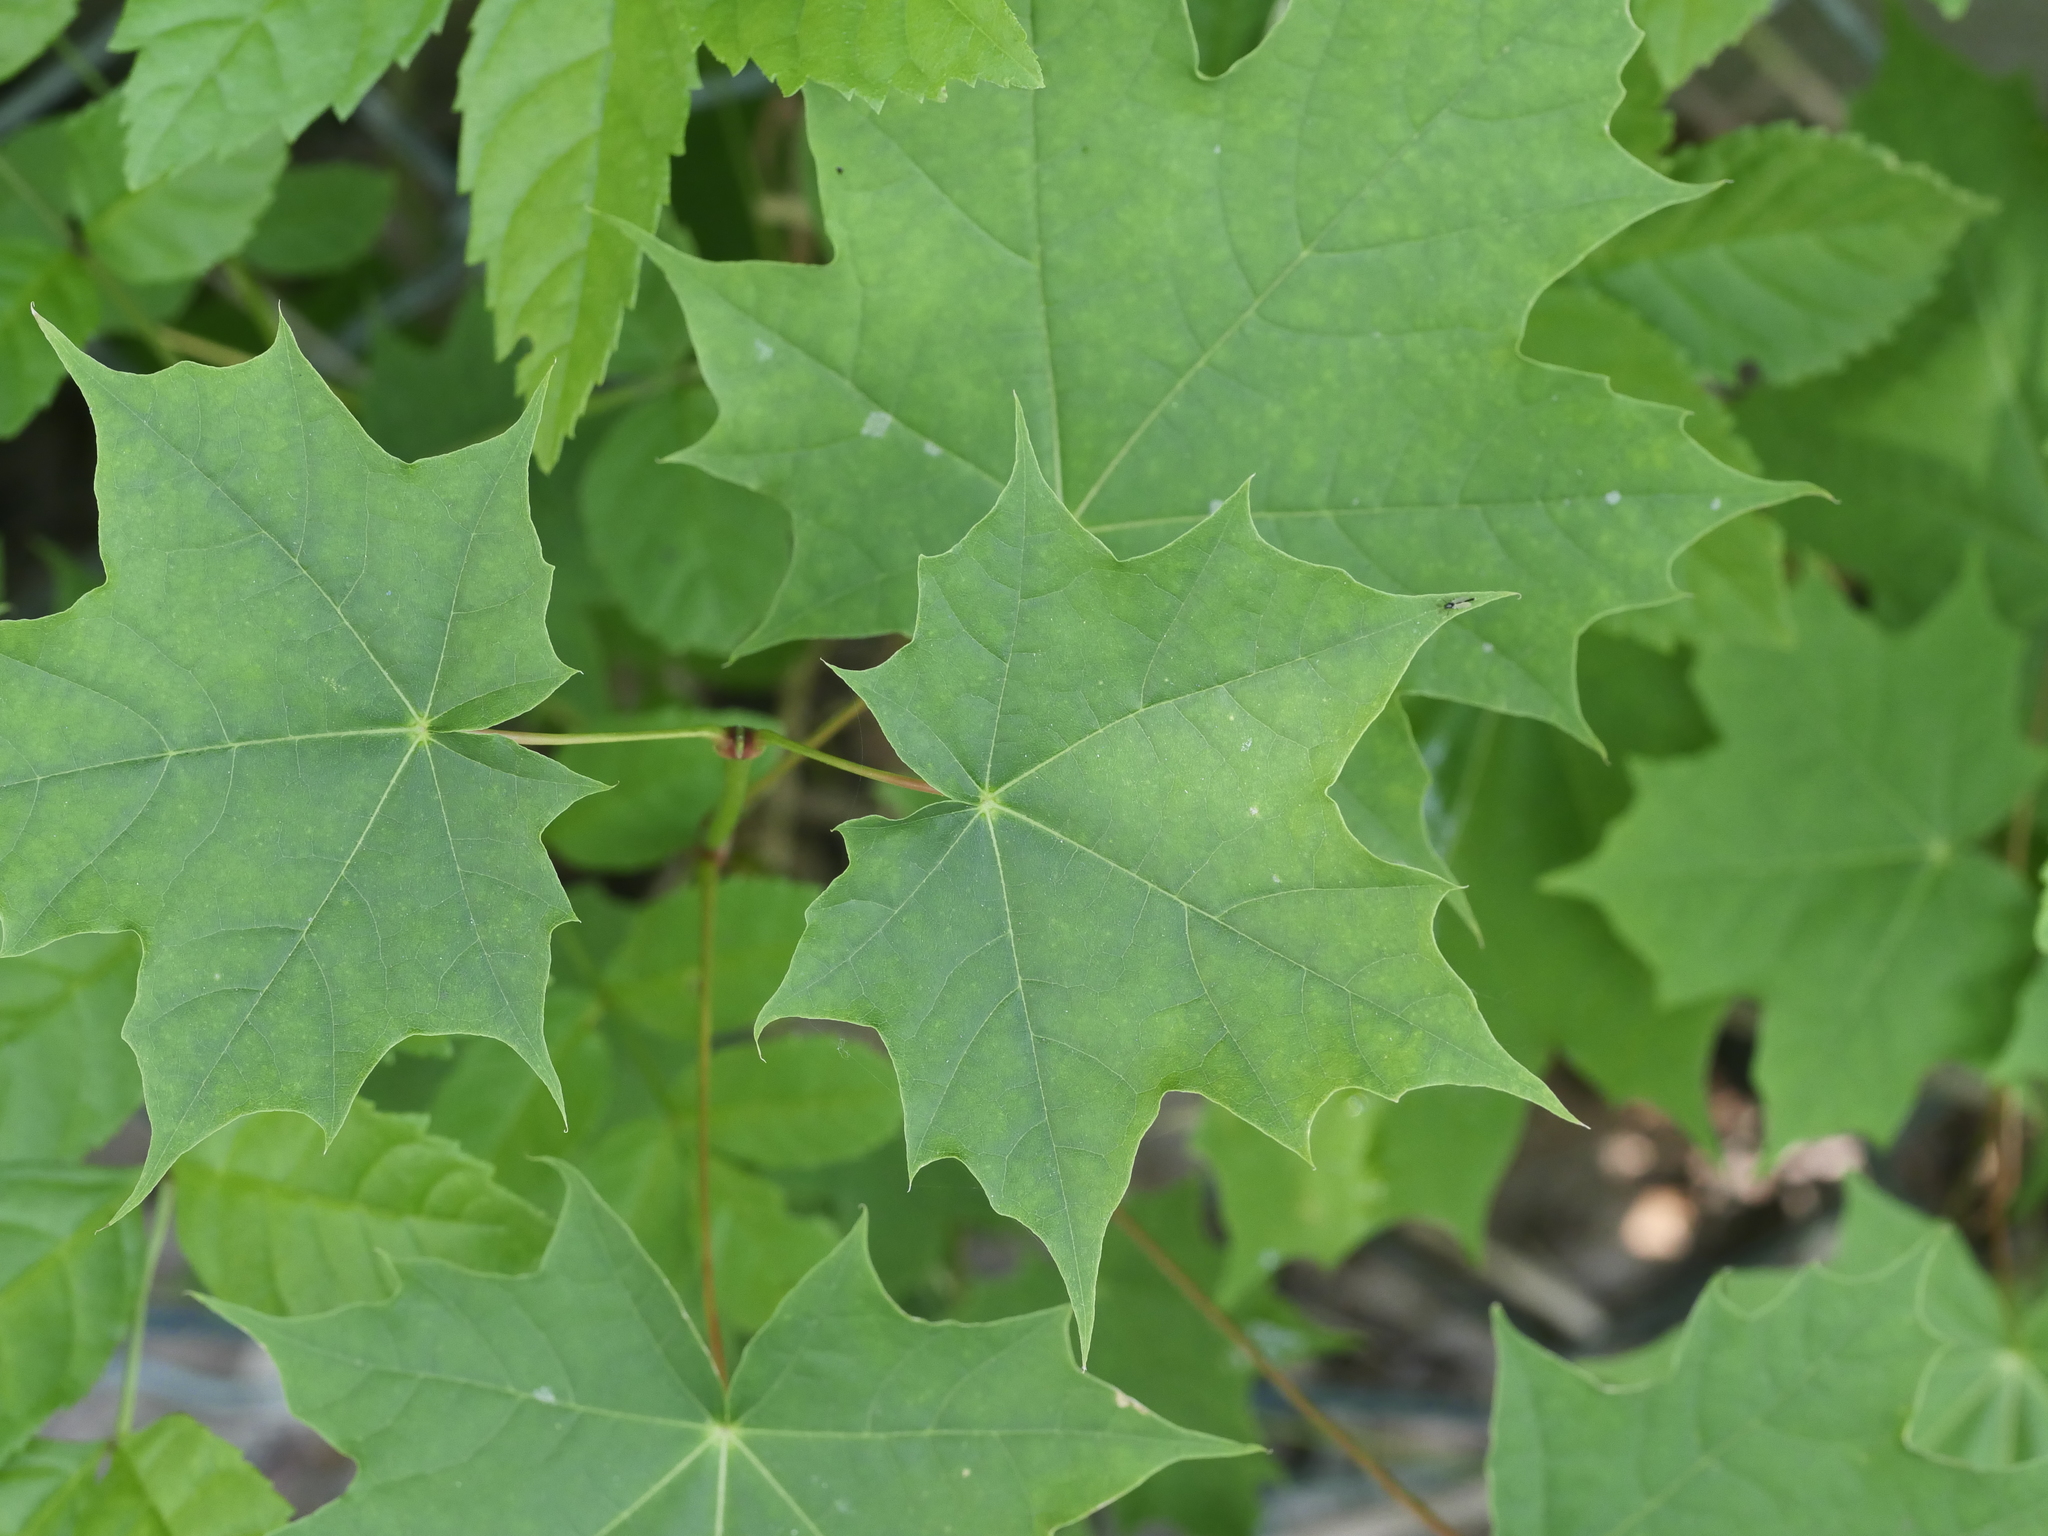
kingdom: Plantae
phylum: Tracheophyta
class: Magnoliopsida
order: Sapindales
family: Sapindaceae
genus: Acer
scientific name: Acer platanoides
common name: Norway maple
